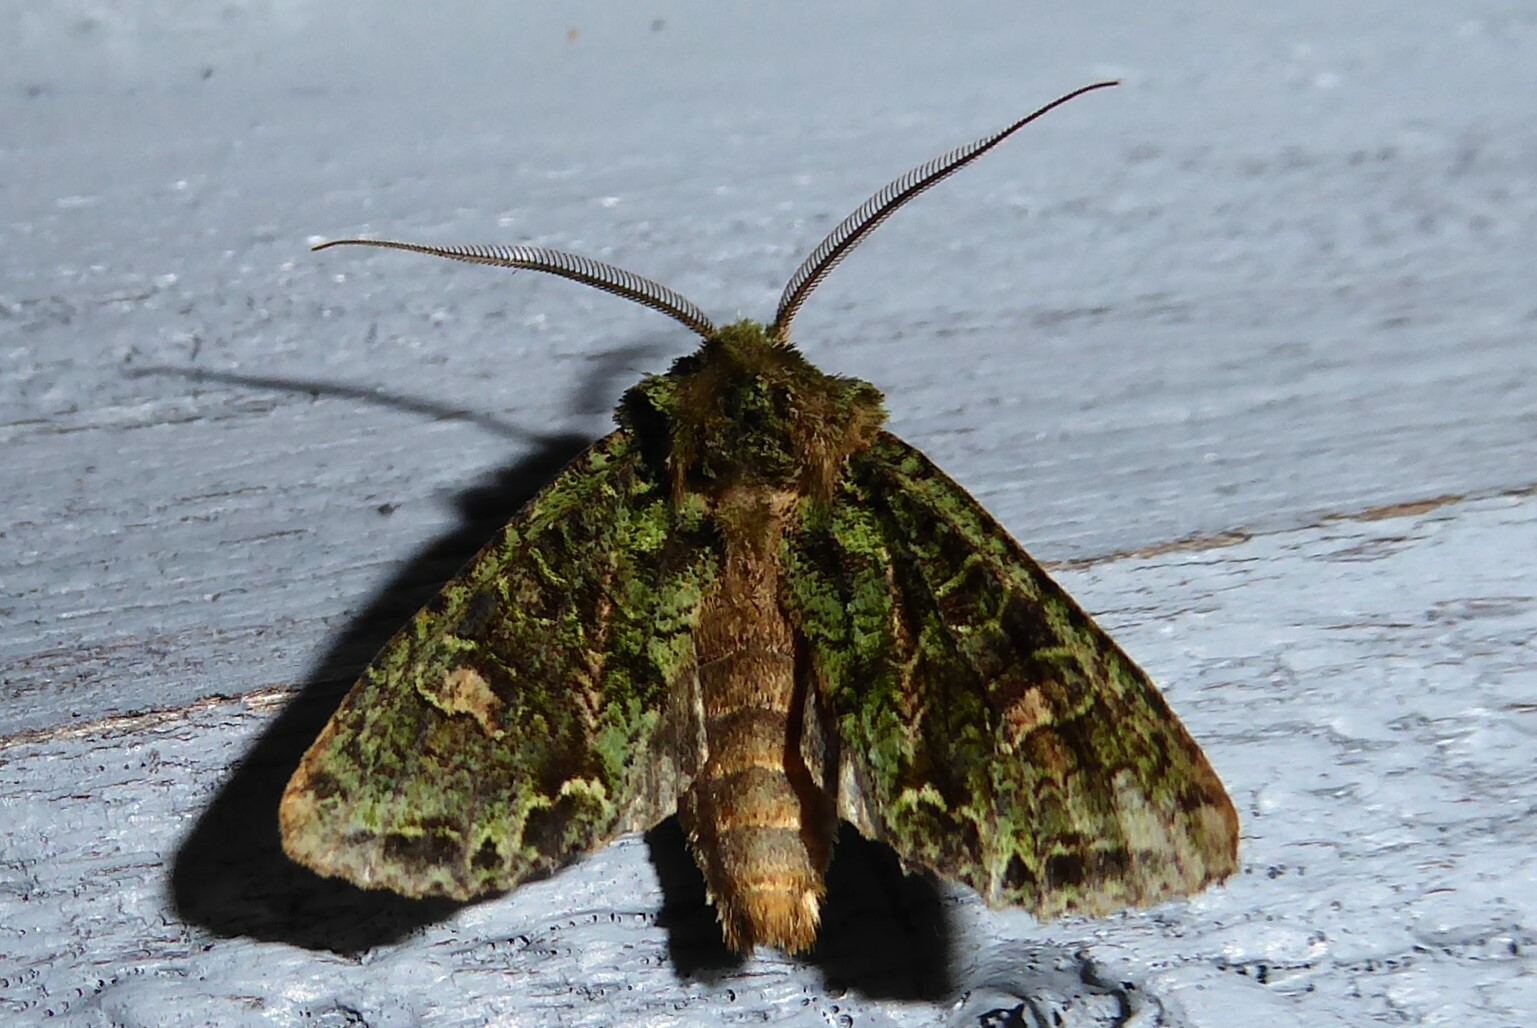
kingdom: Animalia
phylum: Arthropoda
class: Insecta
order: Lepidoptera
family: Noctuidae
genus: Ichneutica
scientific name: Ichneutica
